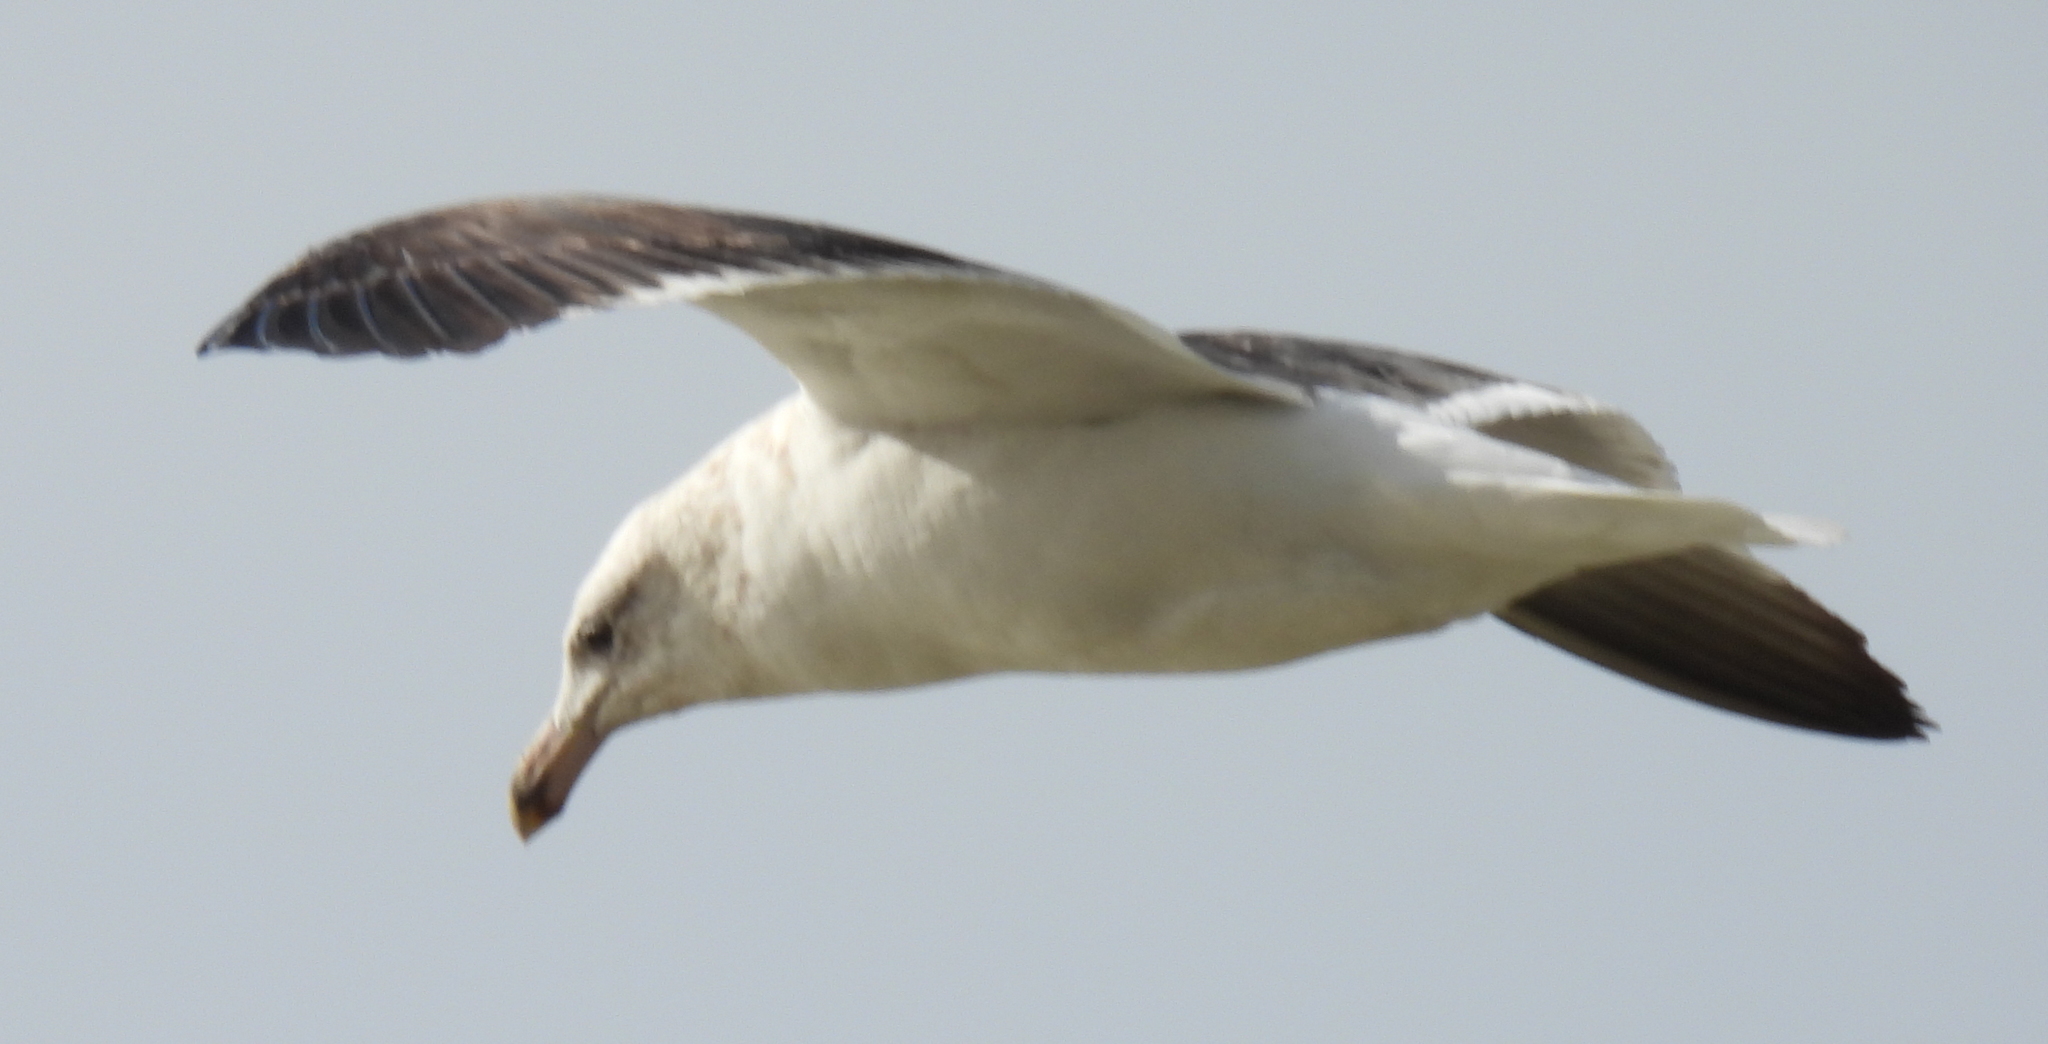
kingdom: Animalia
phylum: Chordata
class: Aves
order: Charadriiformes
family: Laridae
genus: Larus
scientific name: Larus dominicanus
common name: Kelp gull
